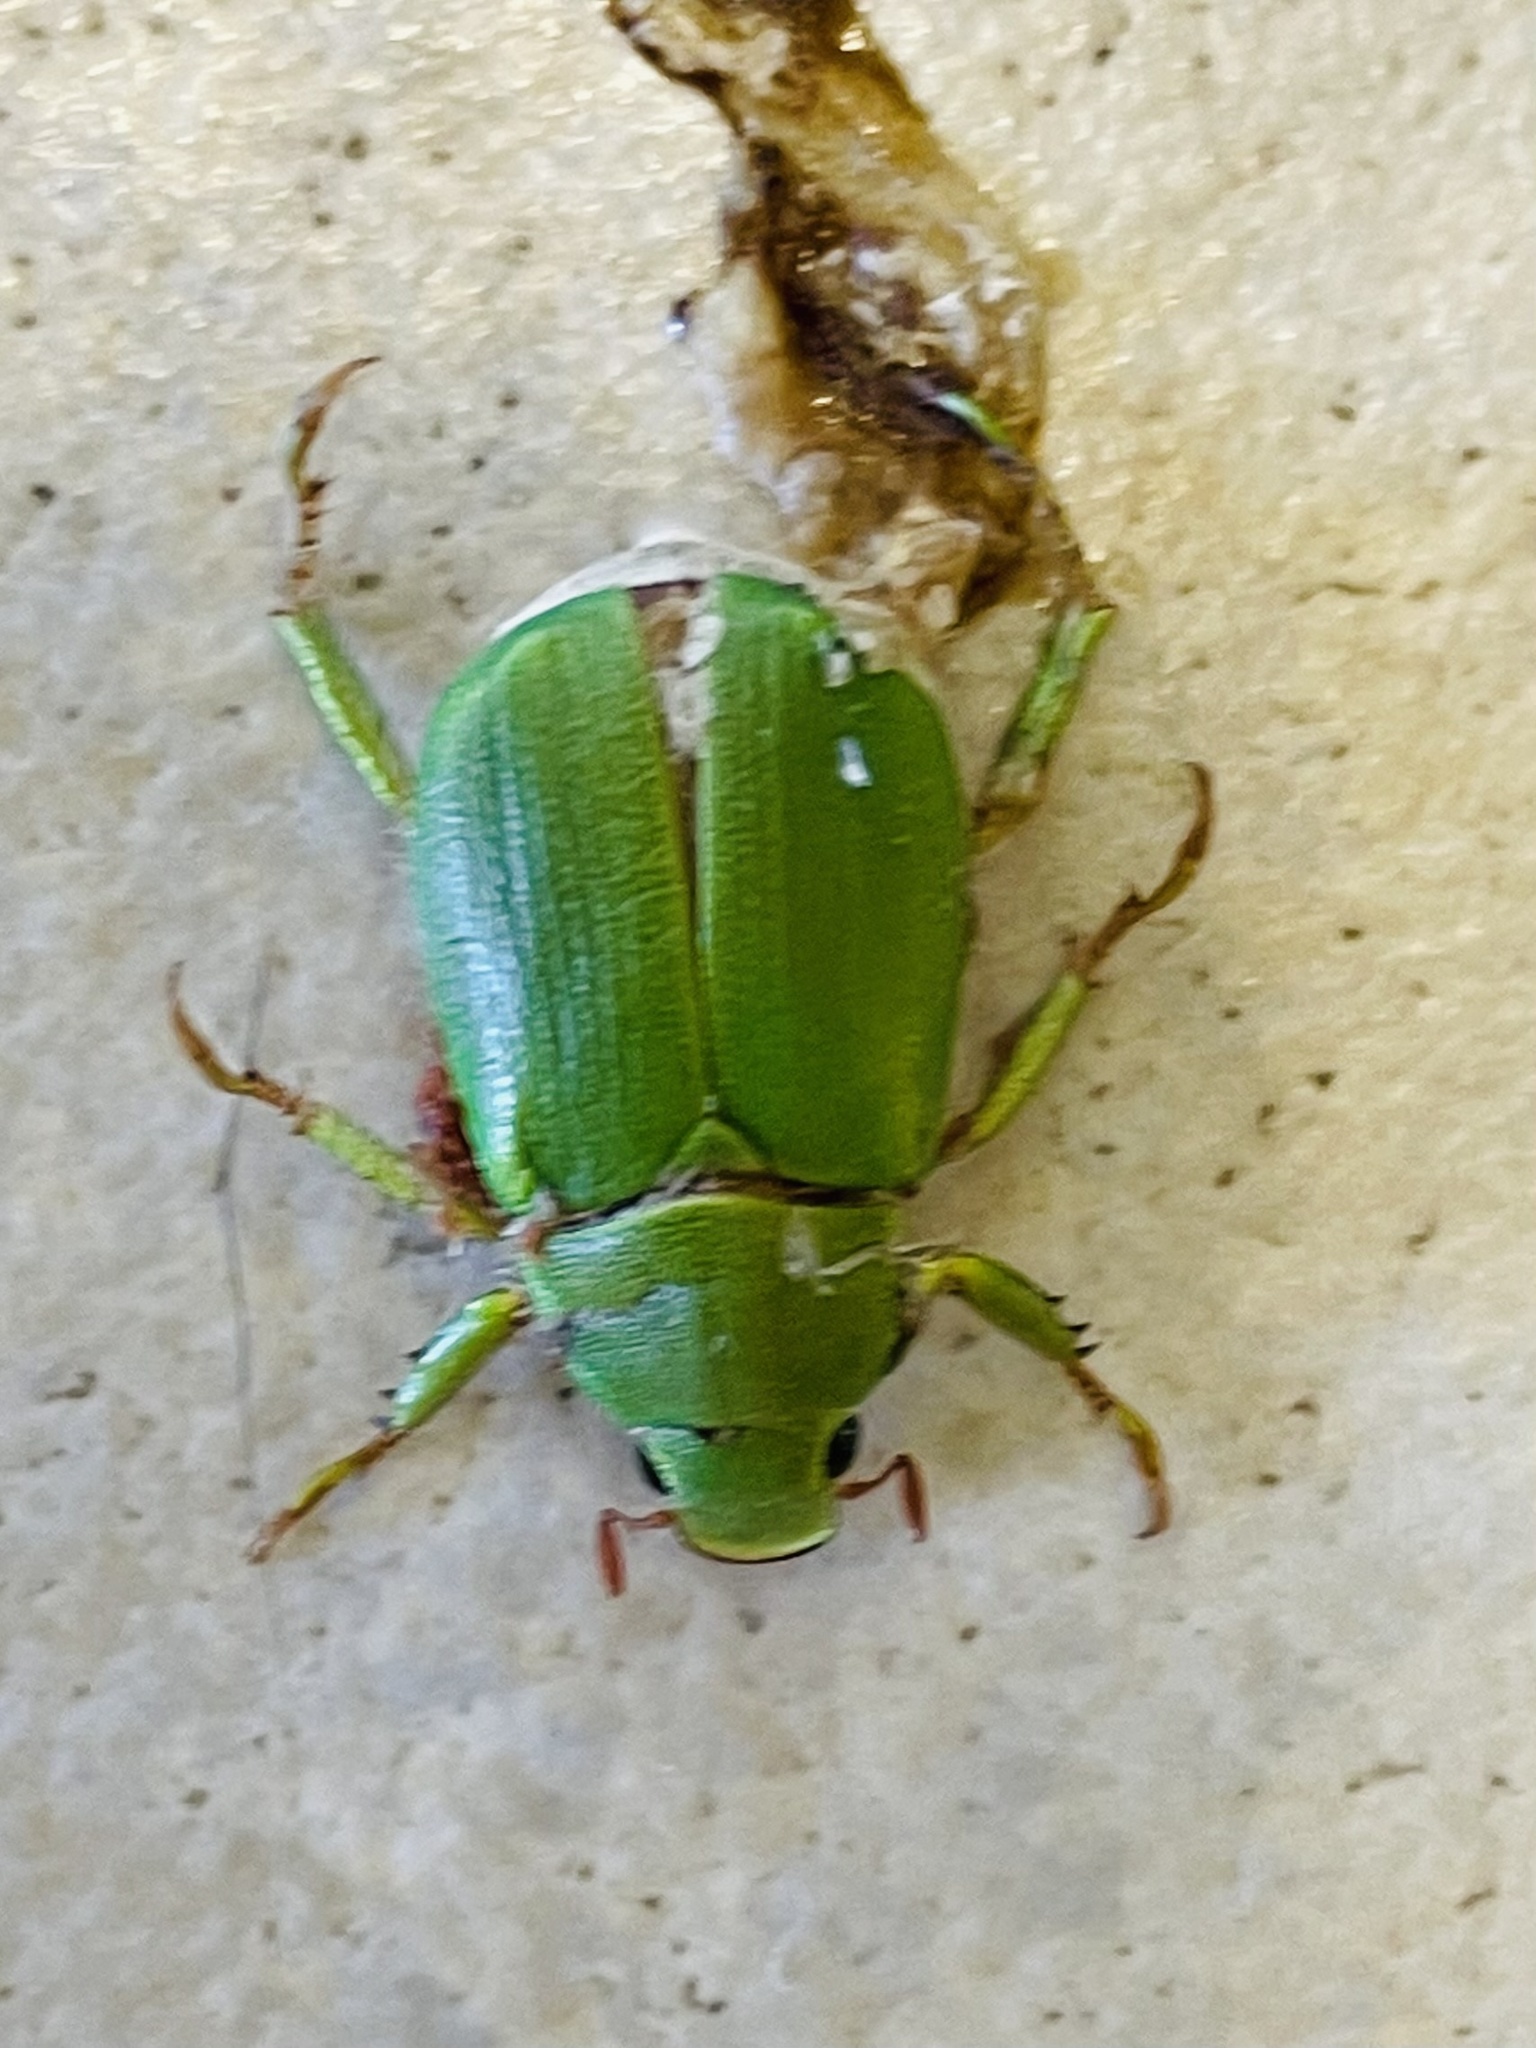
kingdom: Animalia
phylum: Arthropoda
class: Insecta
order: Coleoptera
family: Scarabaeidae
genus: Hylamorpha
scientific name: Hylamorpha elegans
